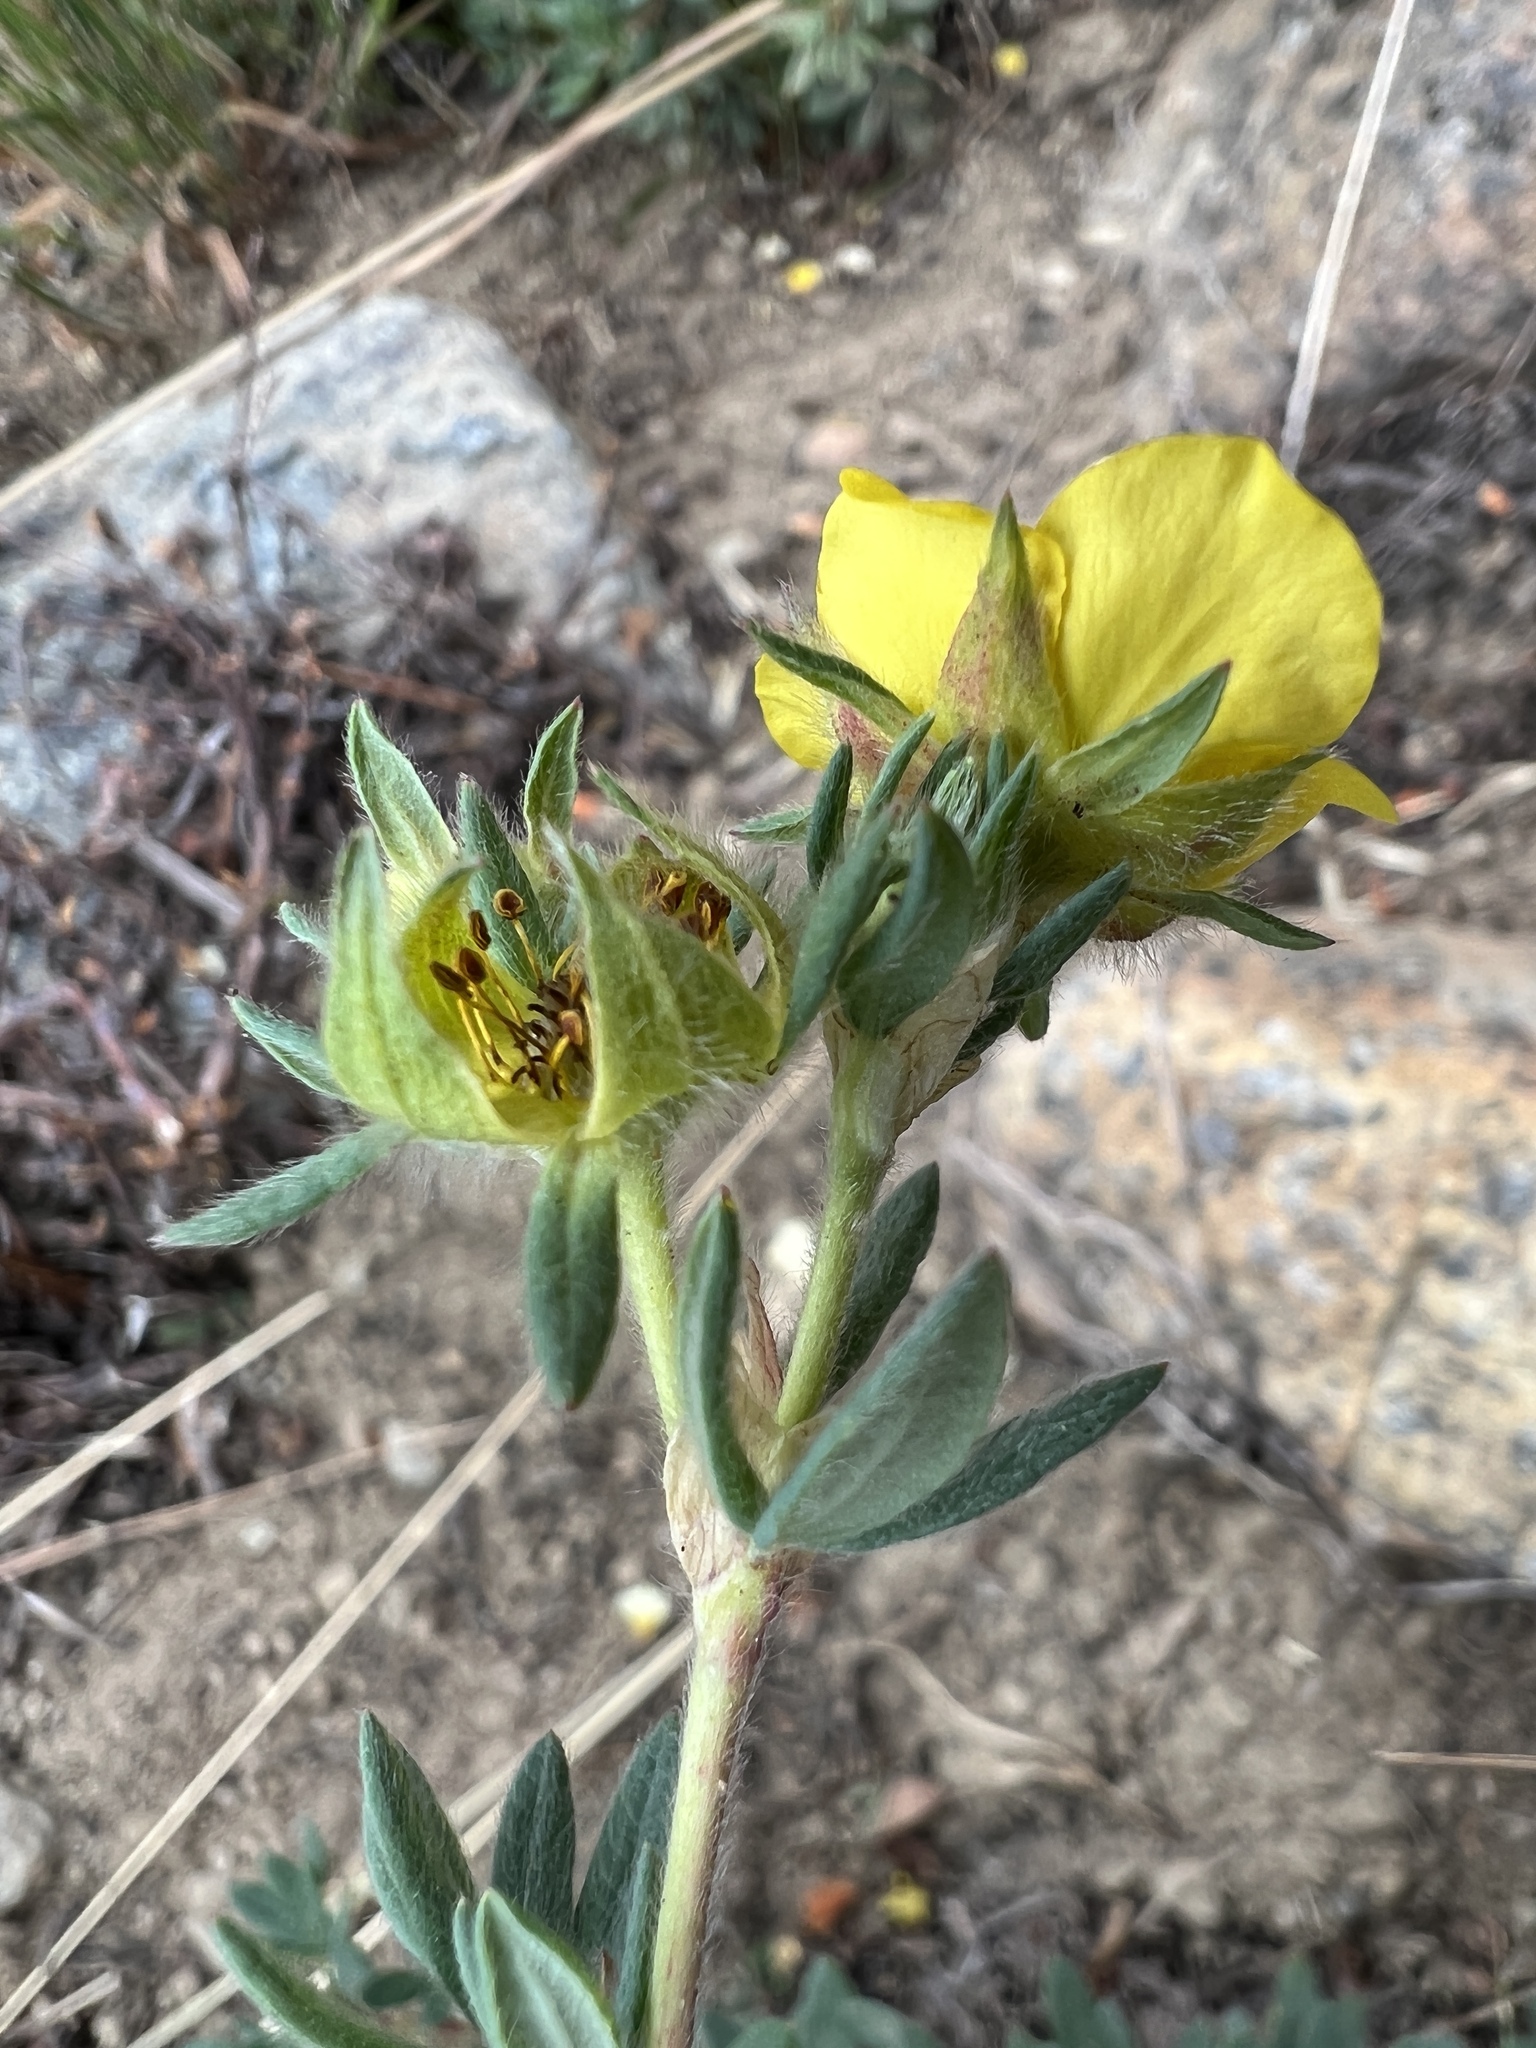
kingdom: Plantae
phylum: Tracheophyta
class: Magnoliopsida
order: Rosales
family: Rosaceae
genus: Dasiphora
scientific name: Dasiphora fruticosa
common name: Shrubby cinquefoil
